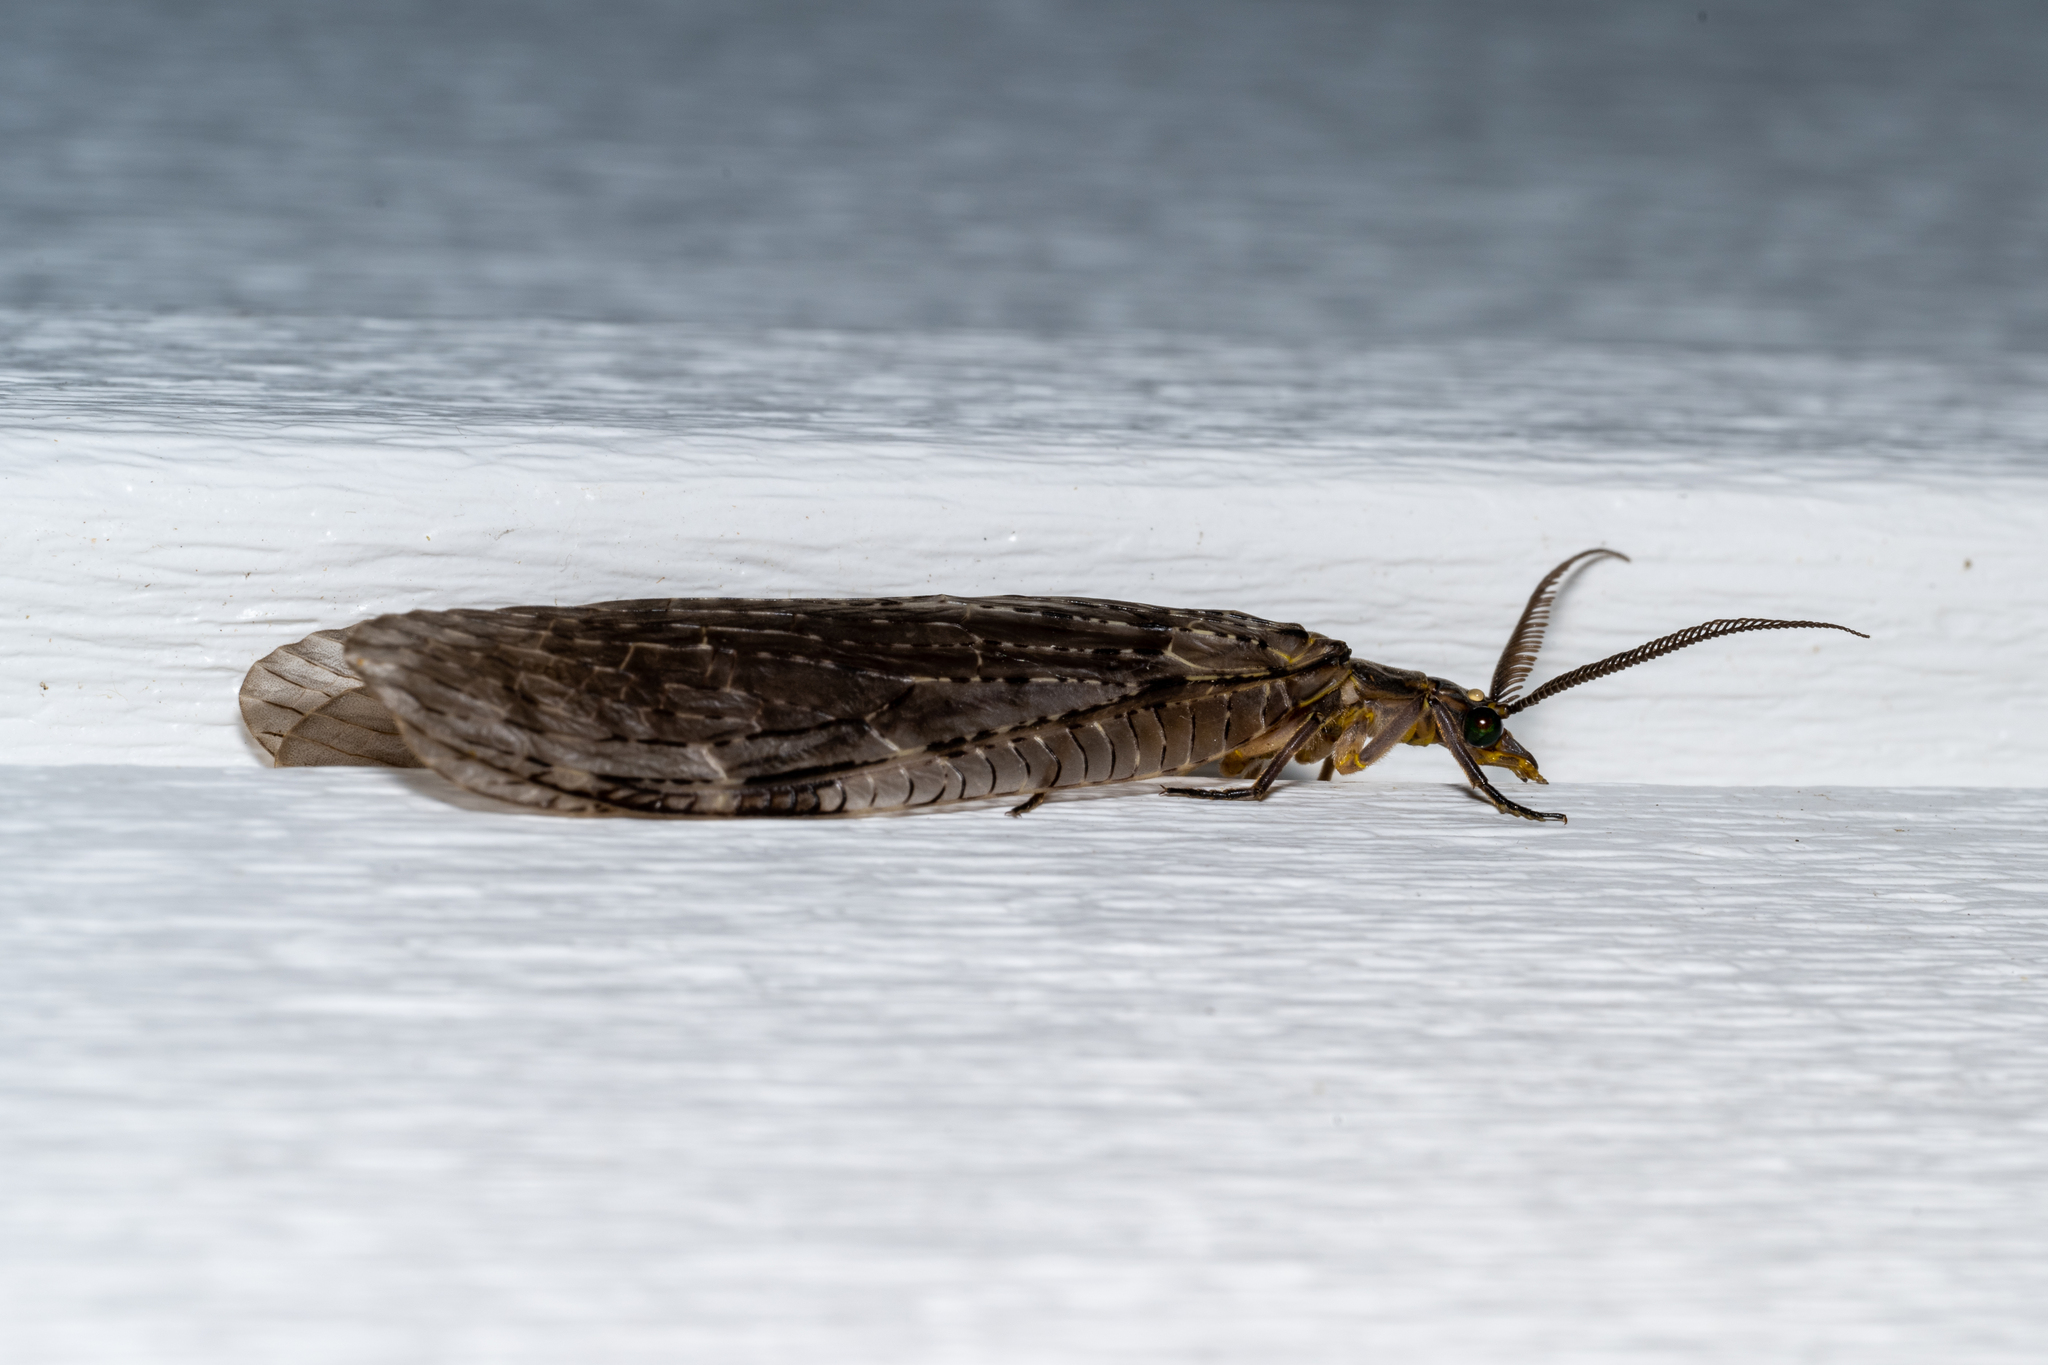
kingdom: Animalia
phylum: Arthropoda
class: Insecta
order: Megaloptera
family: Corydalidae
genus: Chauliodes
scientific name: Chauliodes pectinicornis
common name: Summer fishfly
